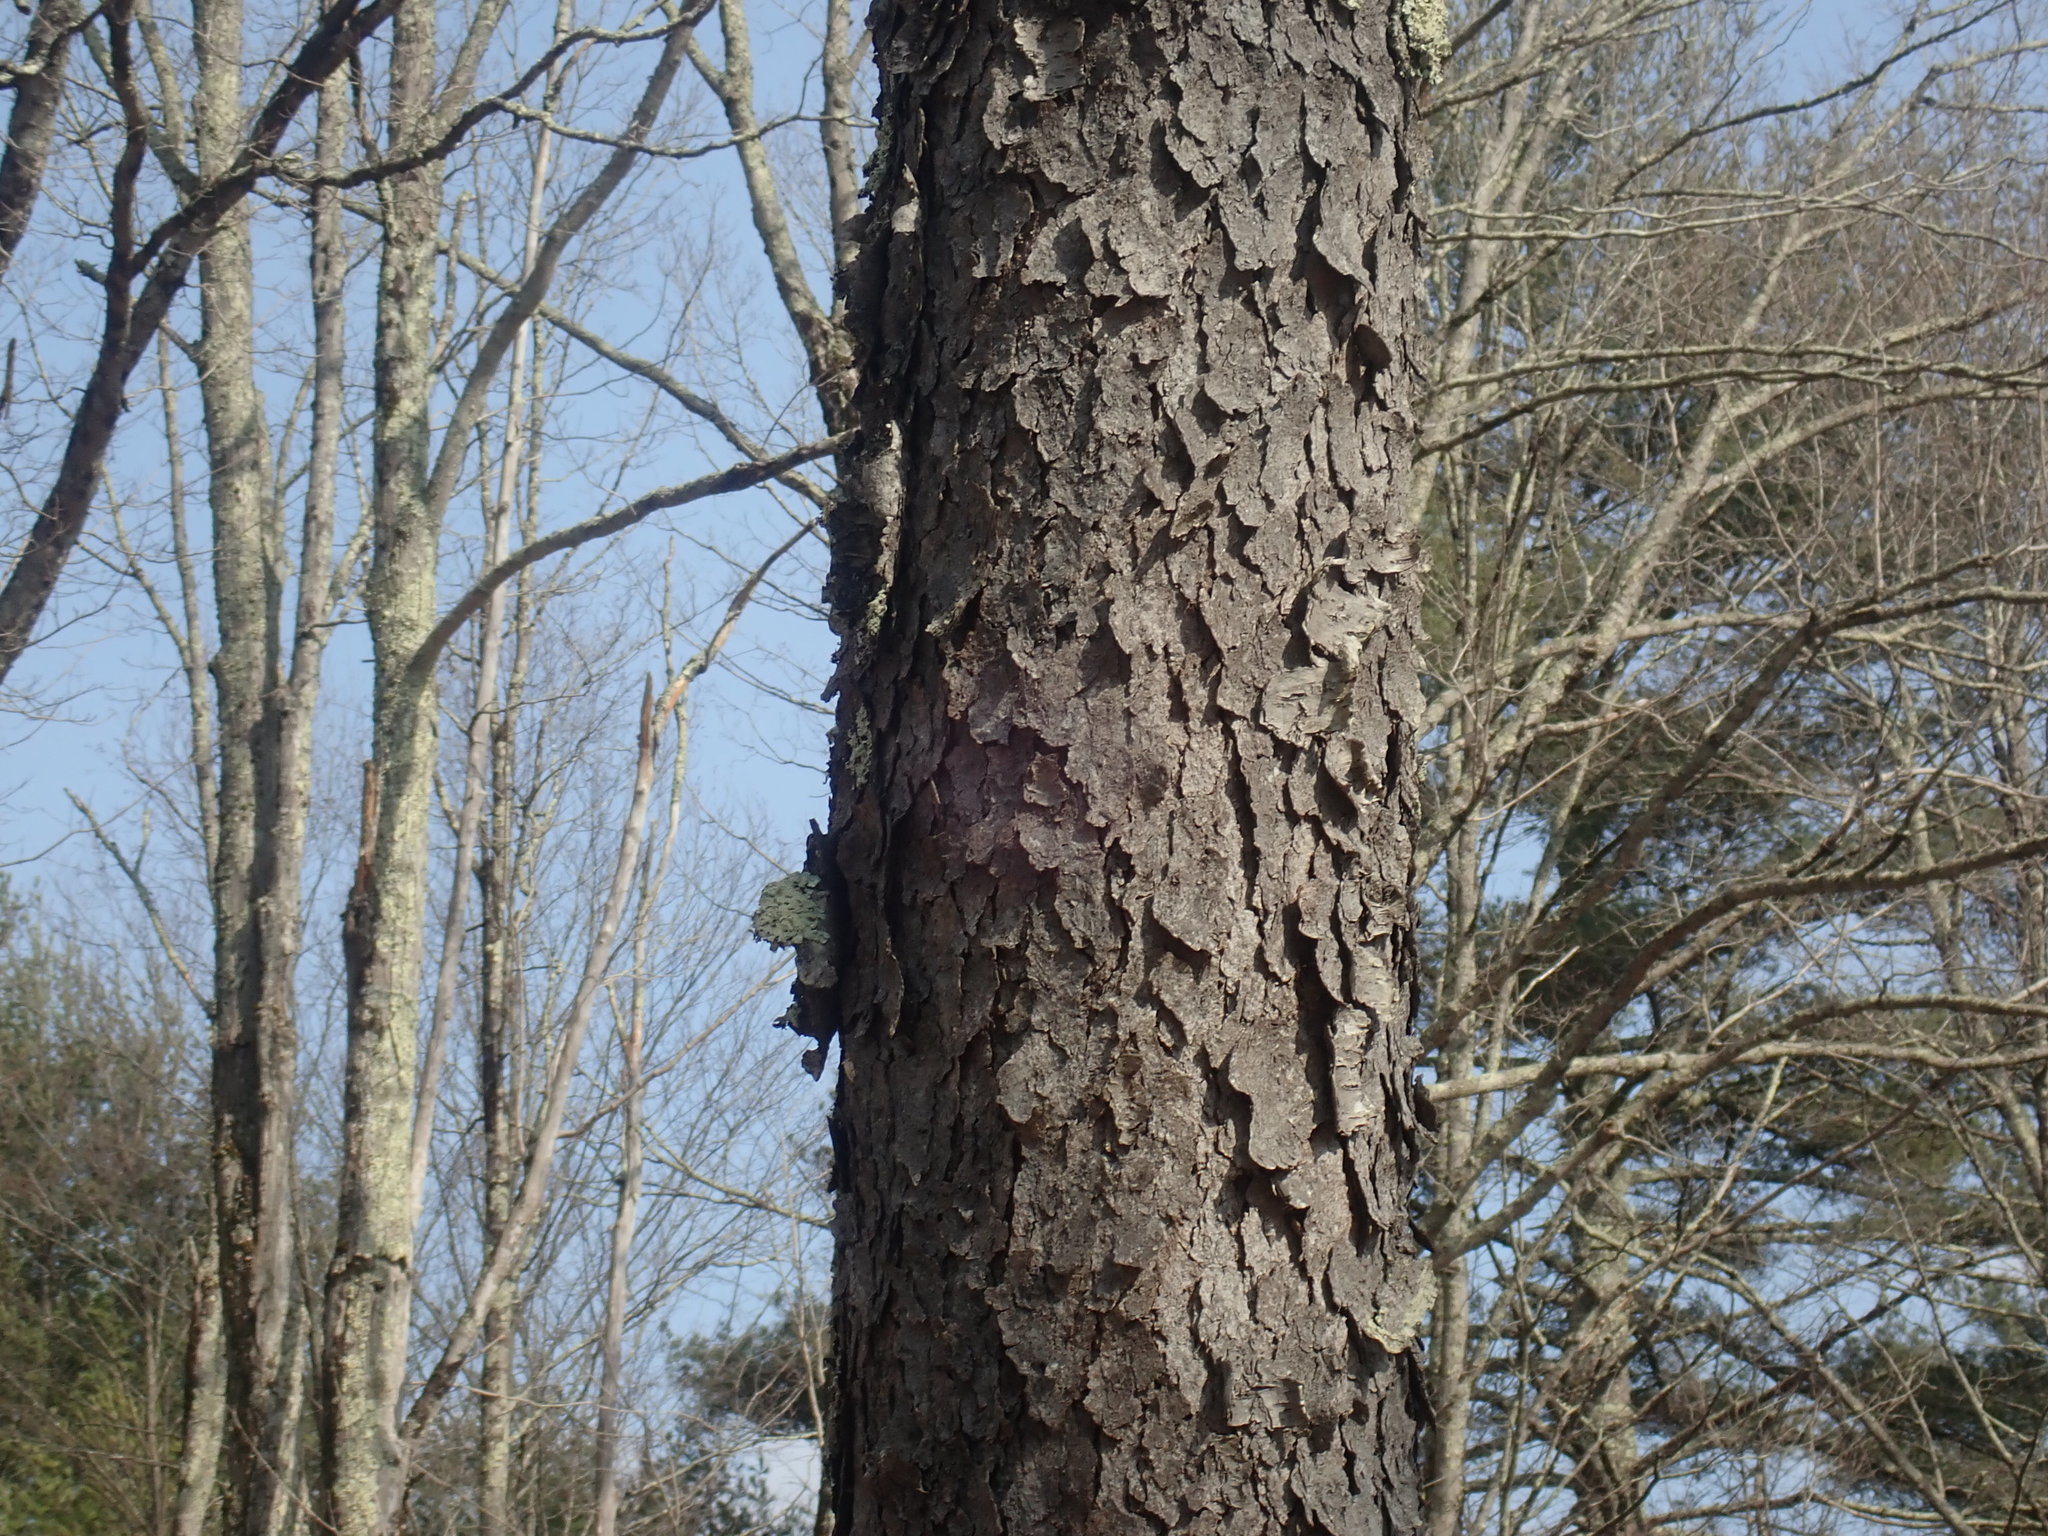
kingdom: Plantae
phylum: Tracheophyta
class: Magnoliopsida
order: Rosales
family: Rosaceae
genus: Prunus
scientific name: Prunus serotina
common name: Black cherry
